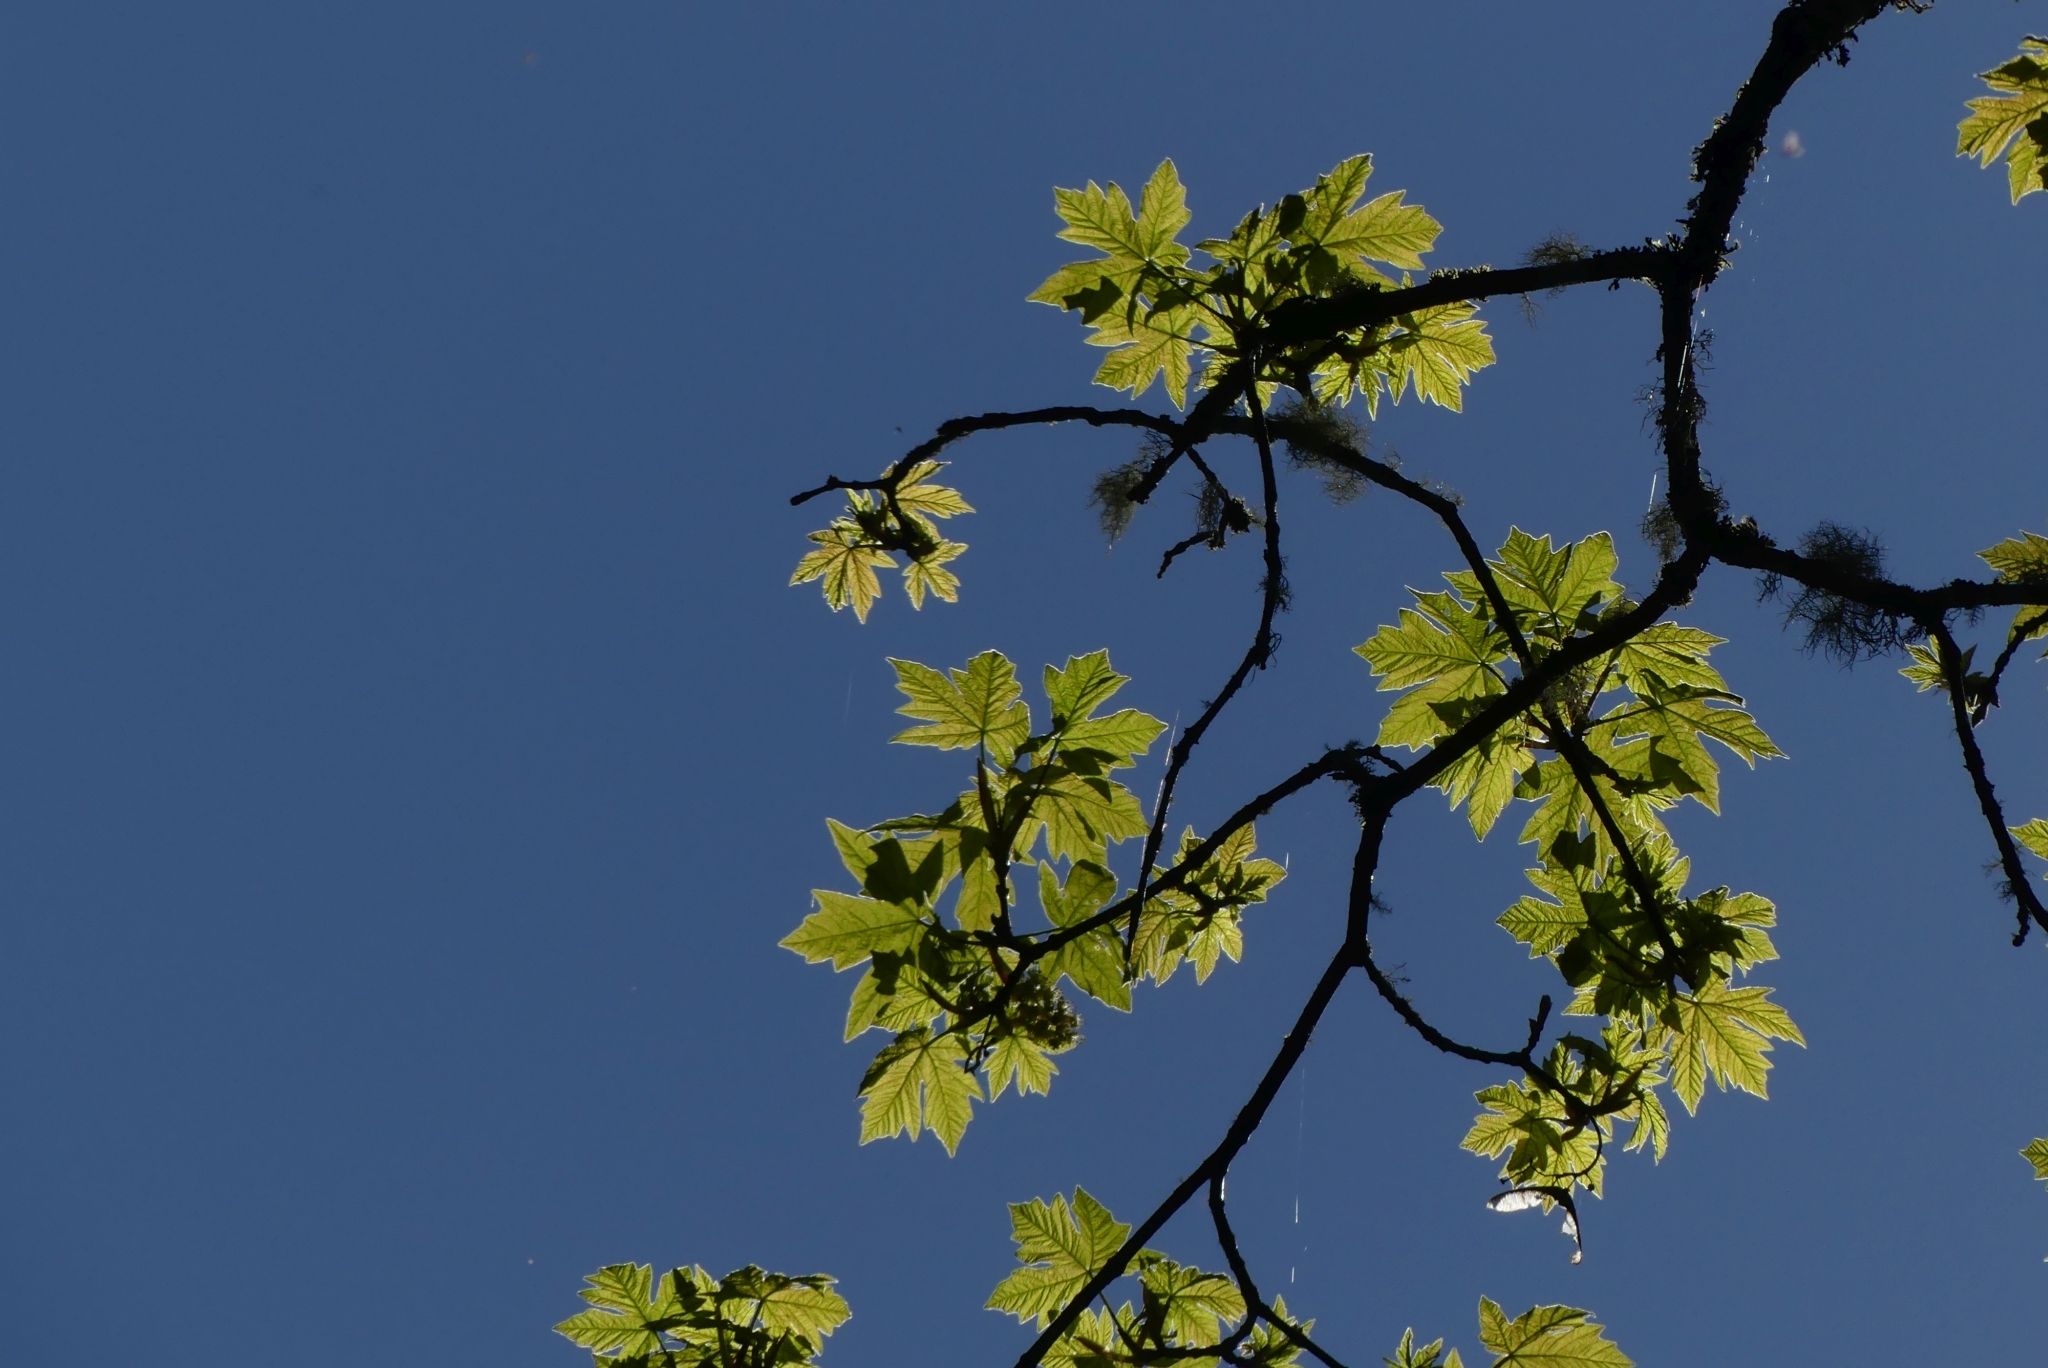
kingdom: Plantae
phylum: Tracheophyta
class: Magnoliopsida
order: Sapindales
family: Sapindaceae
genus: Acer
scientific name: Acer macrophyllum
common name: Oregon maple
